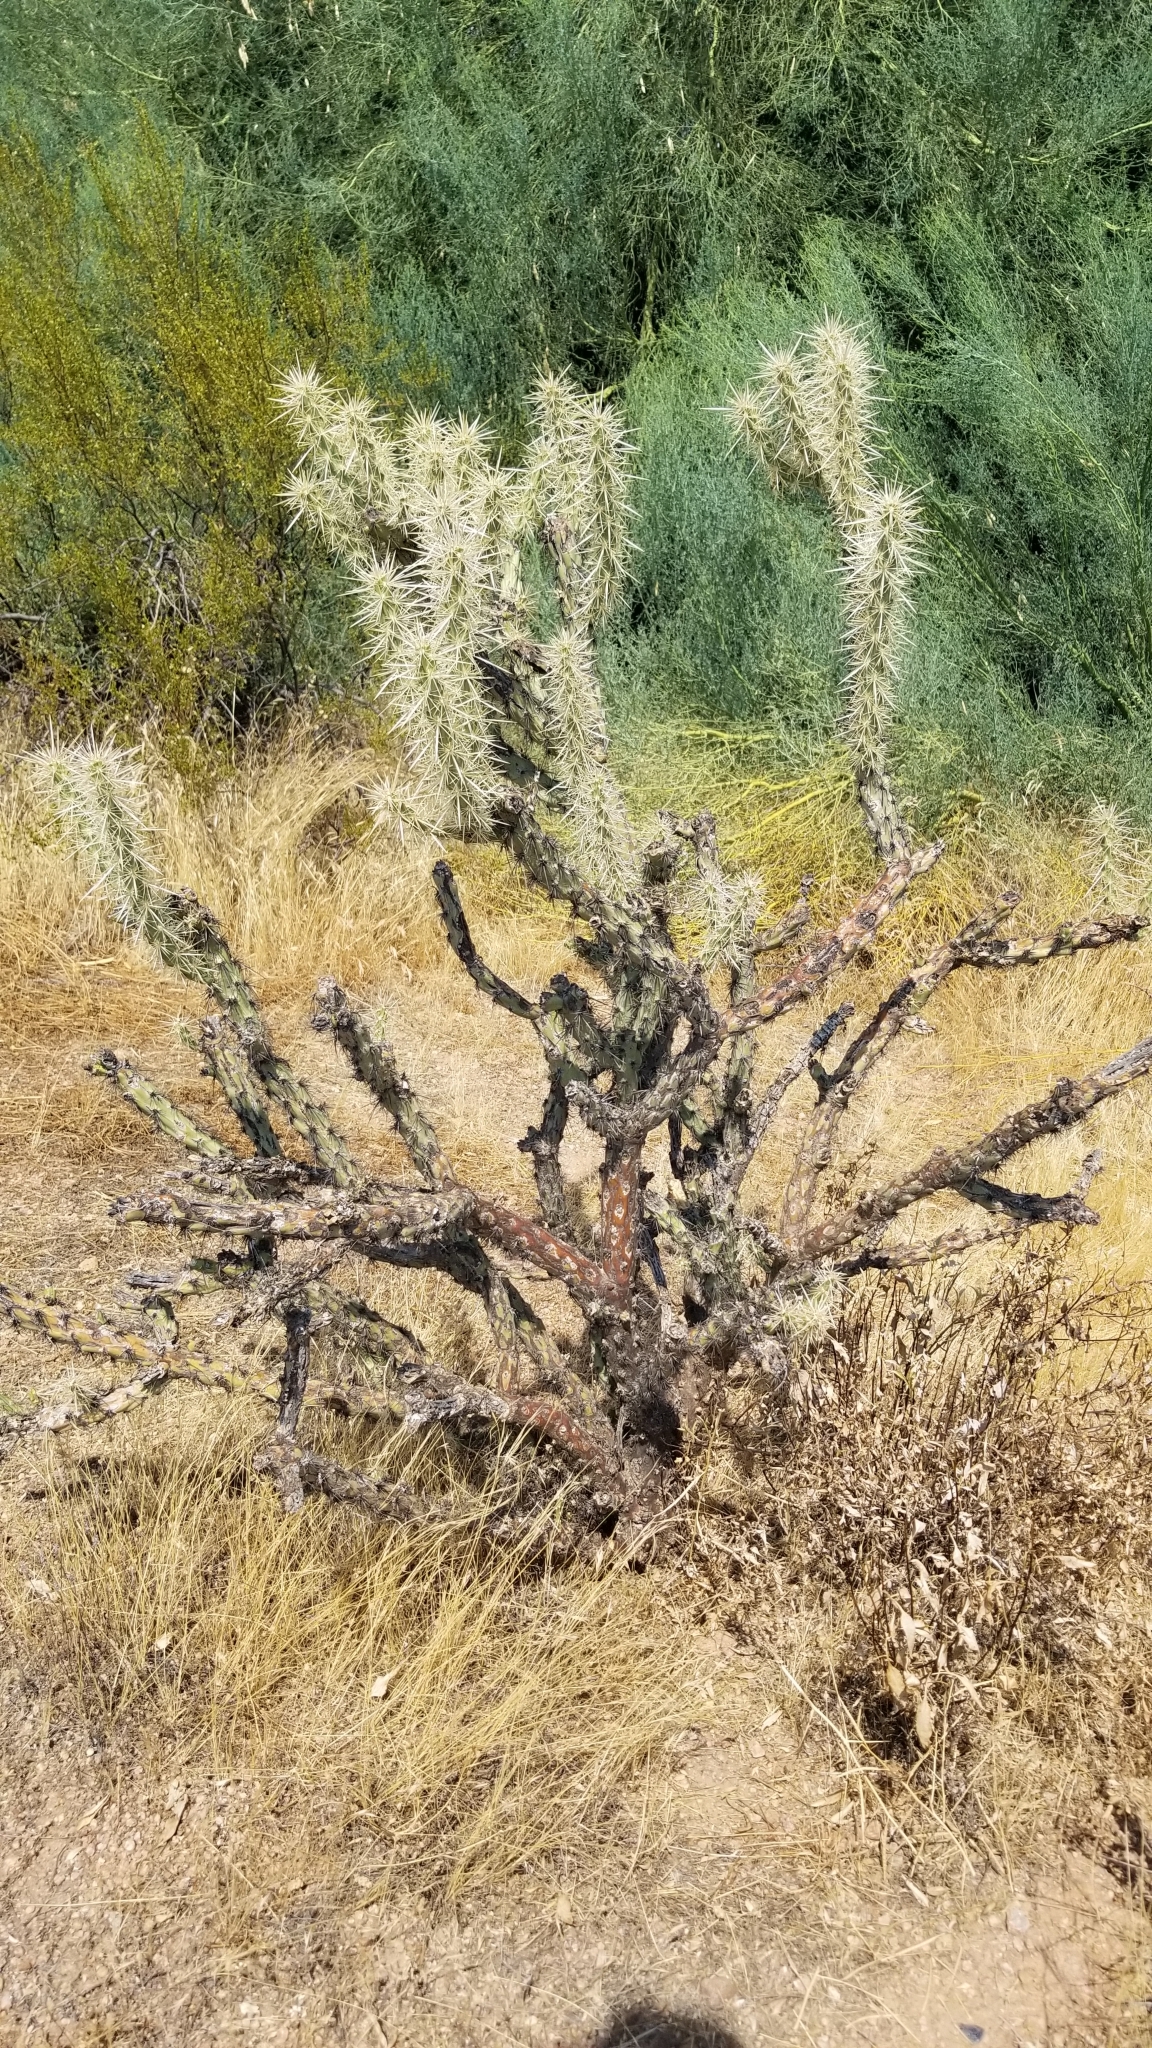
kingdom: Plantae
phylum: Tracheophyta
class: Magnoliopsida
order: Caryophyllales
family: Cactaceae
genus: Cylindropuntia
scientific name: Cylindropuntia acanthocarpa
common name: Buckhorn cholla
